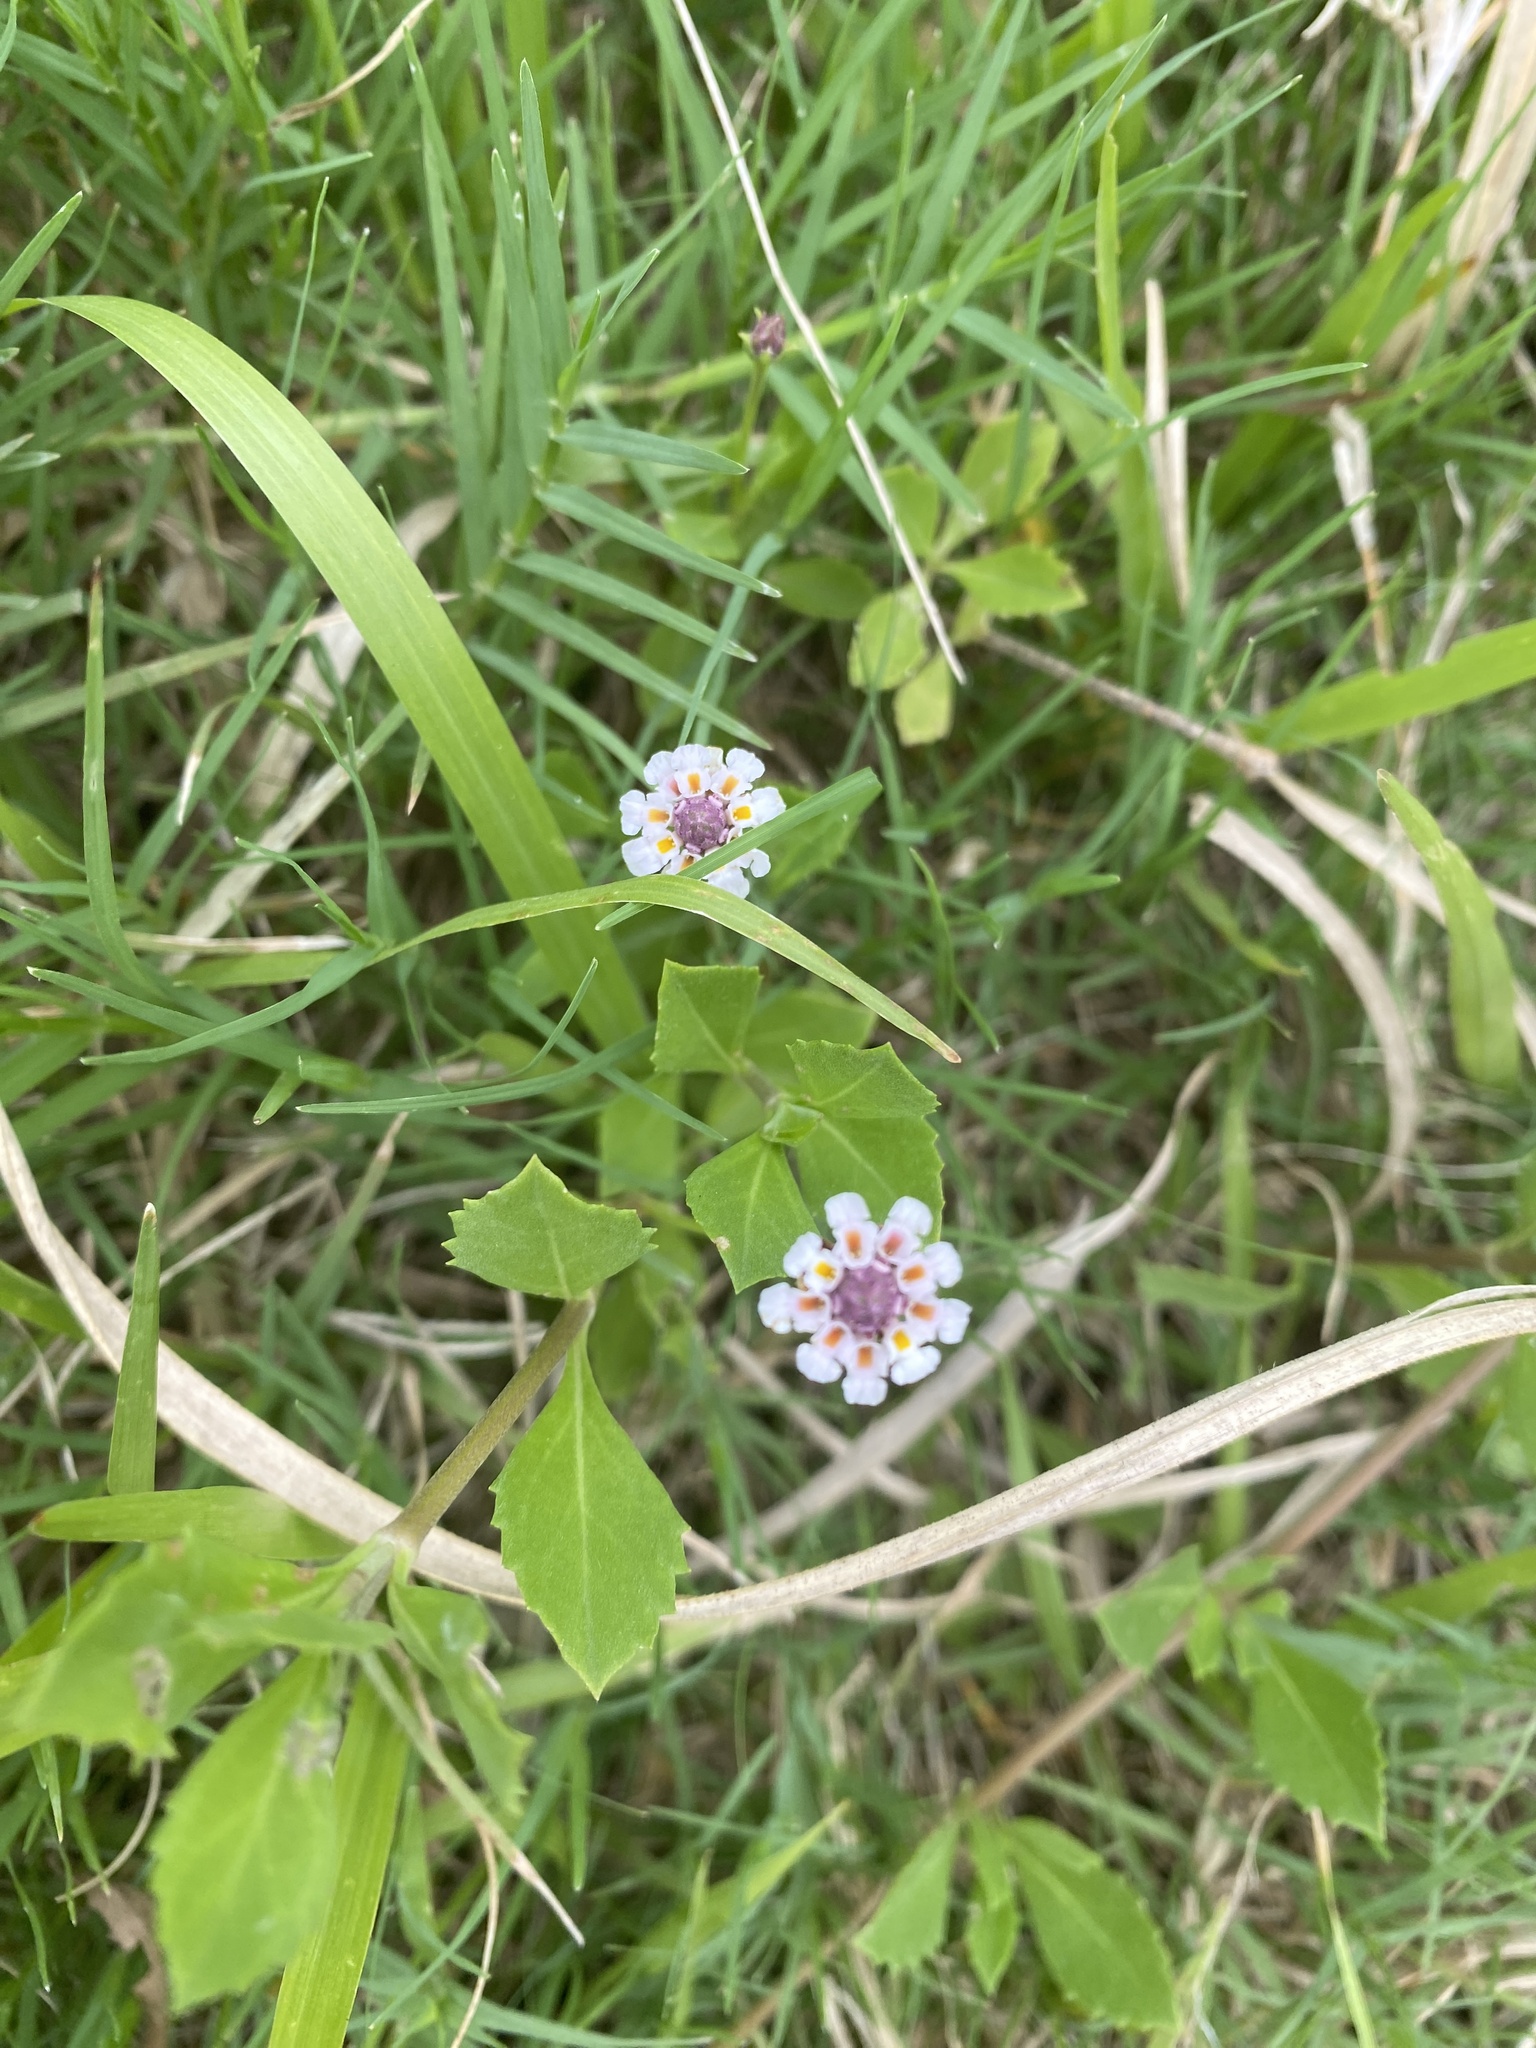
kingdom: Plantae
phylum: Tracheophyta
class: Magnoliopsida
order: Lamiales
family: Verbenaceae
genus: Phyla
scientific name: Phyla nodiflora
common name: Frogfruit
